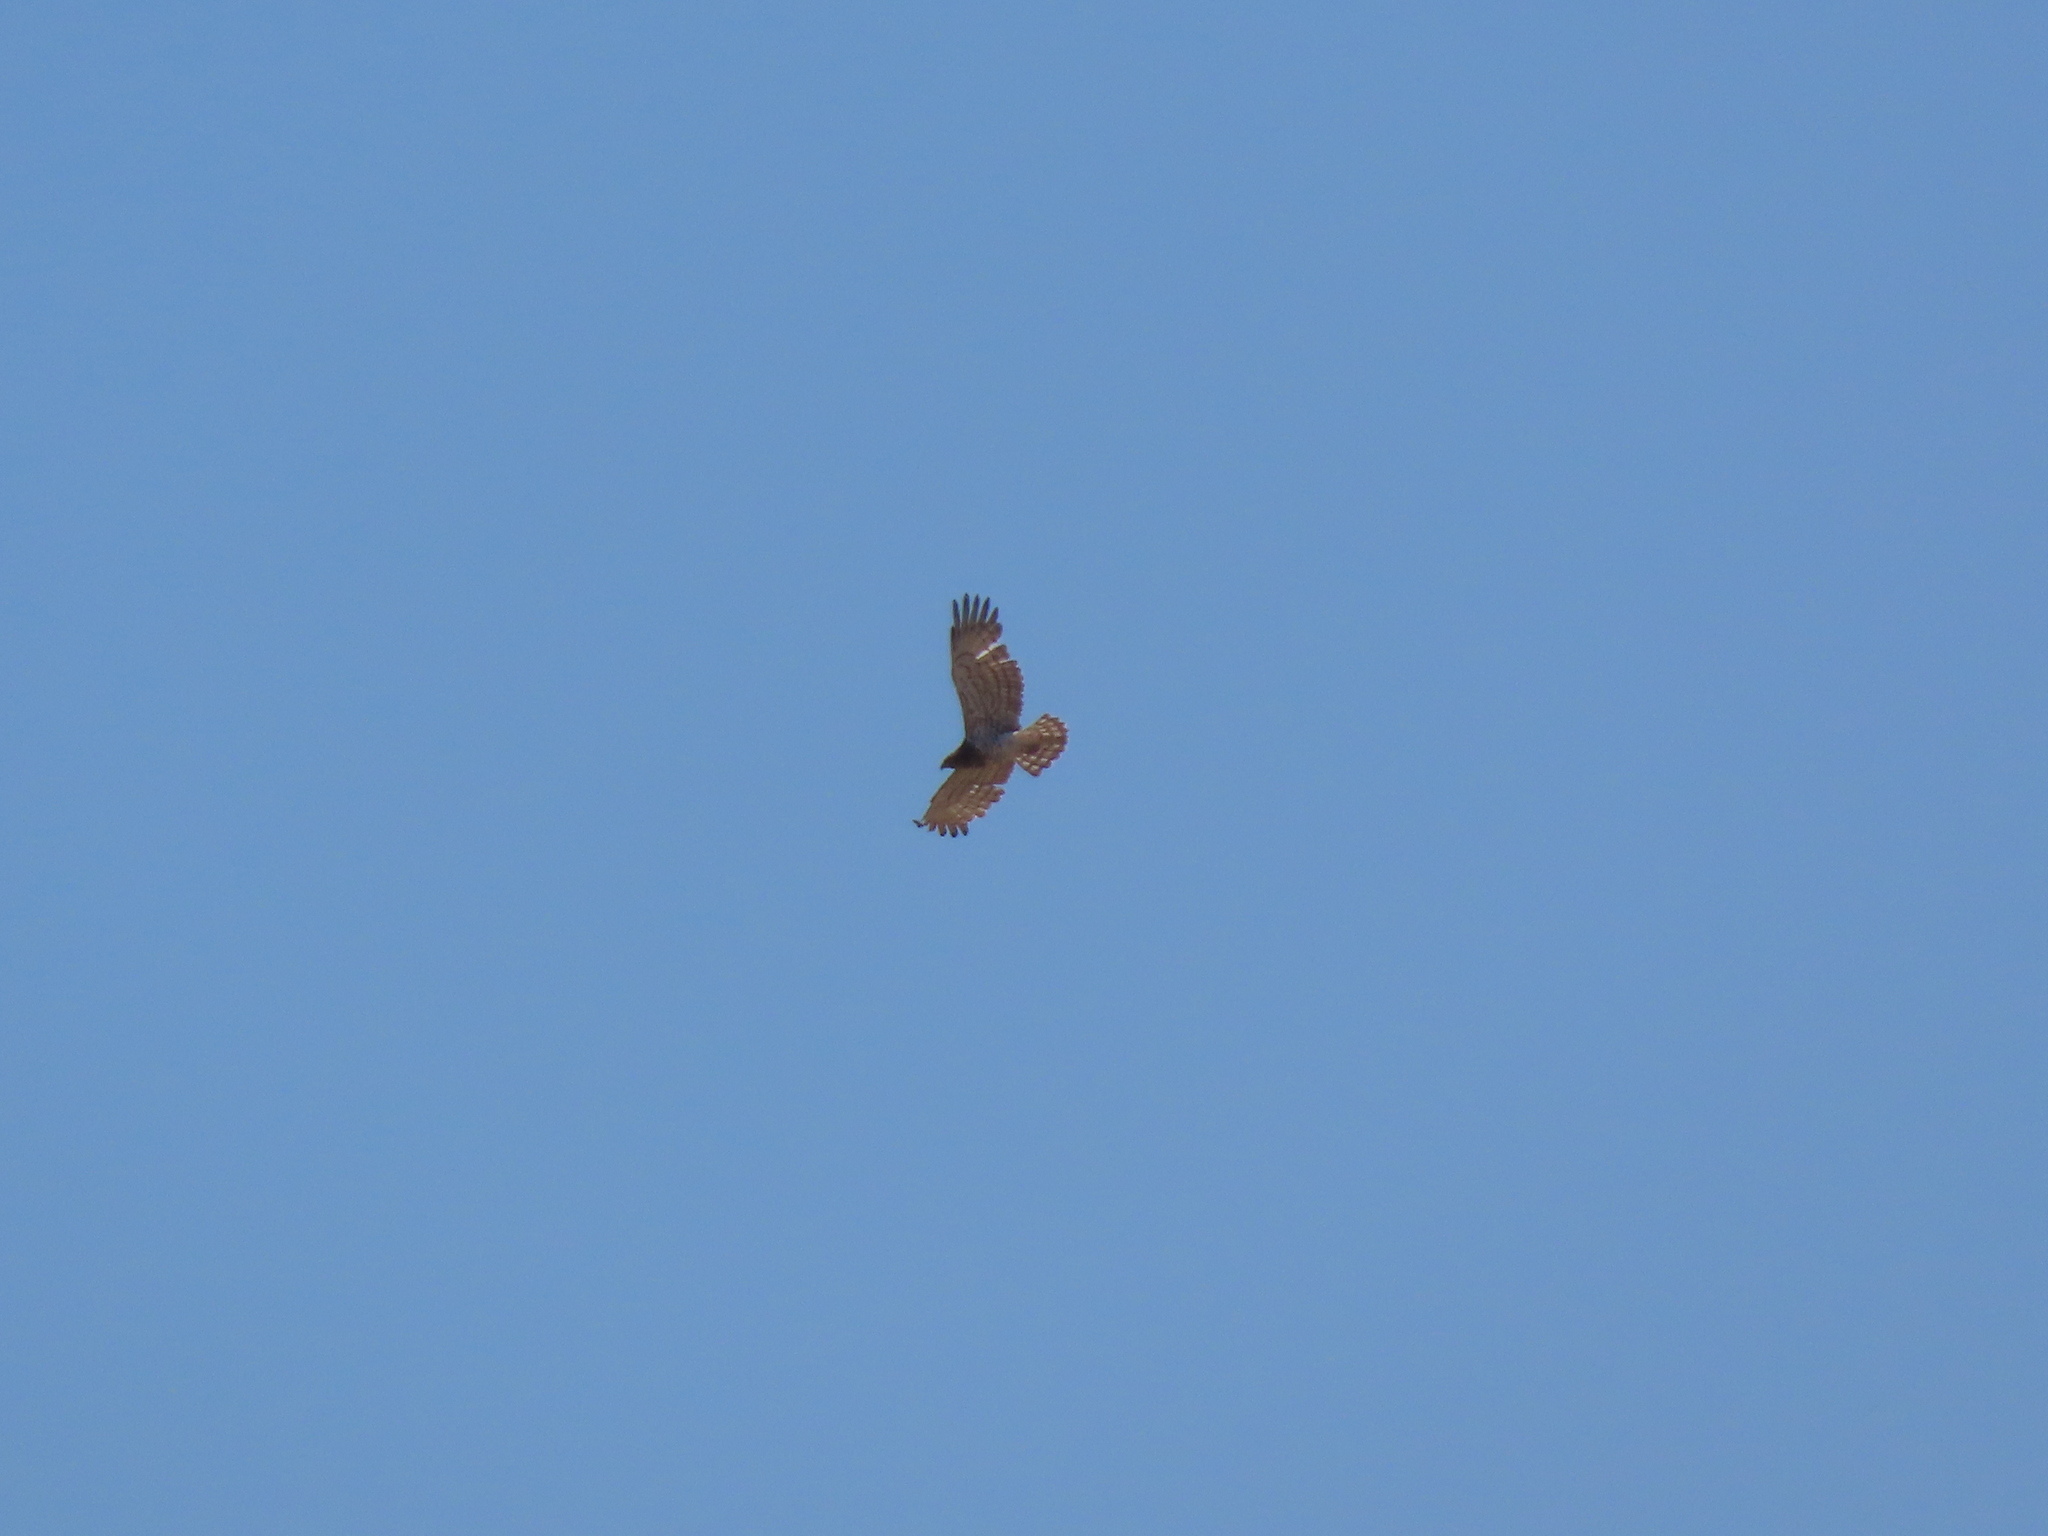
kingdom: Animalia
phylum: Chordata
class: Aves
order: Accipitriformes
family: Accipitridae
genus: Circaetus
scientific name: Circaetus gallicus
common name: Short-toed snake eagle
